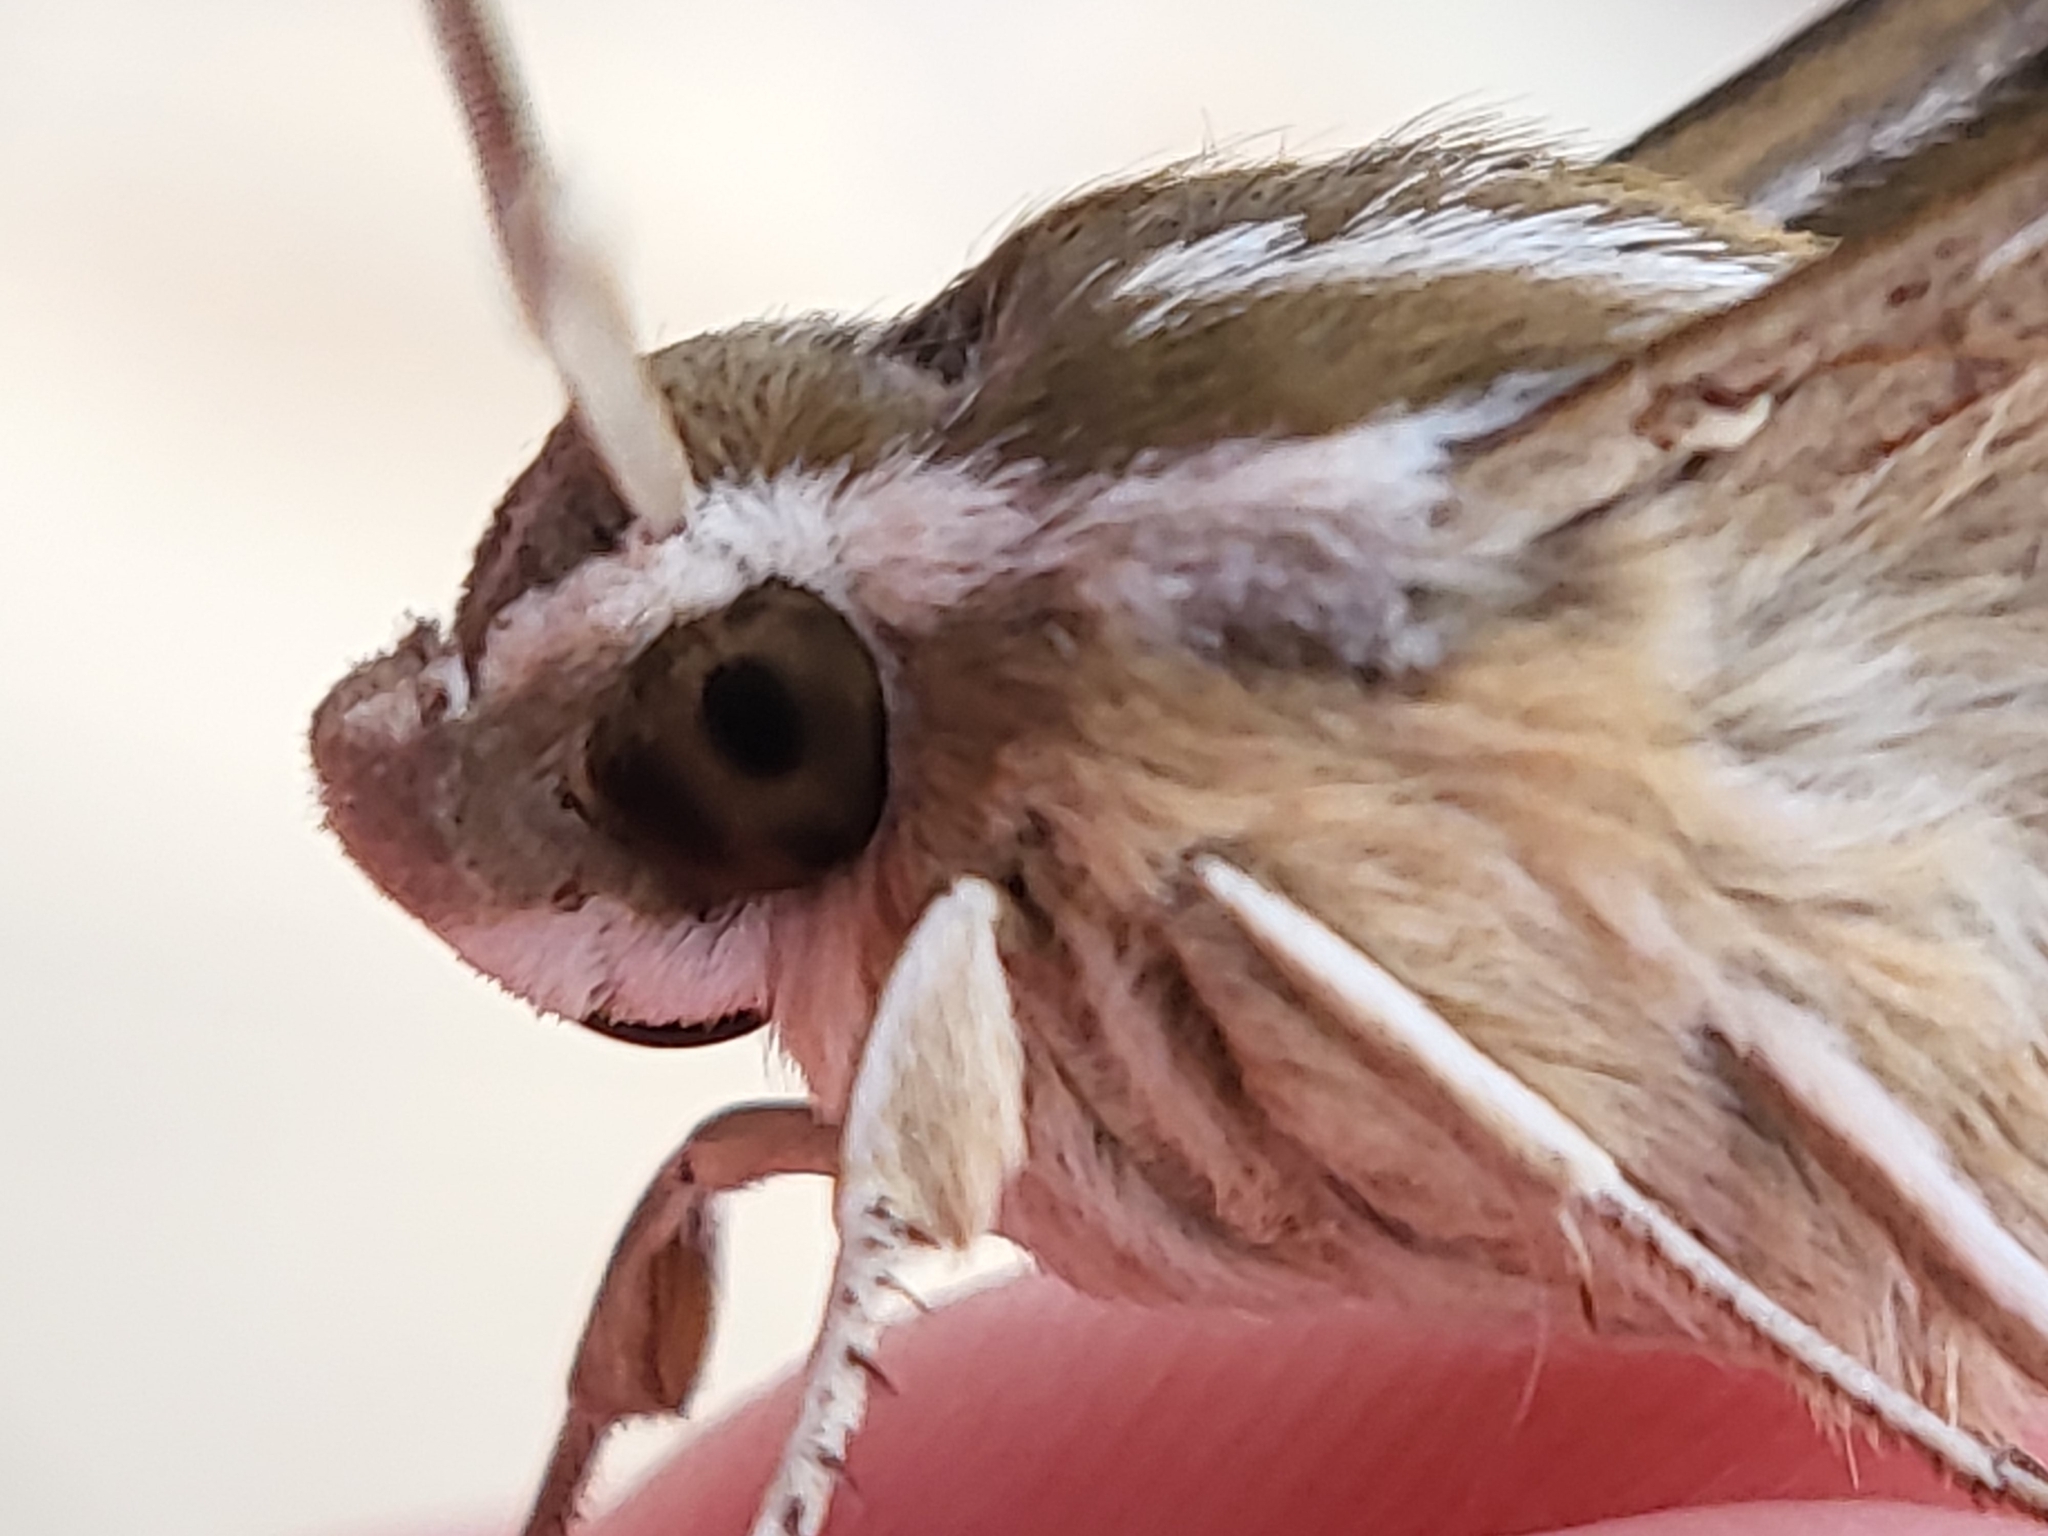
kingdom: Animalia
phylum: Arthropoda
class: Insecta
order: Lepidoptera
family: Sphingidae
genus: Hyles
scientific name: Hyles lineata
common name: White-lined sphinx
